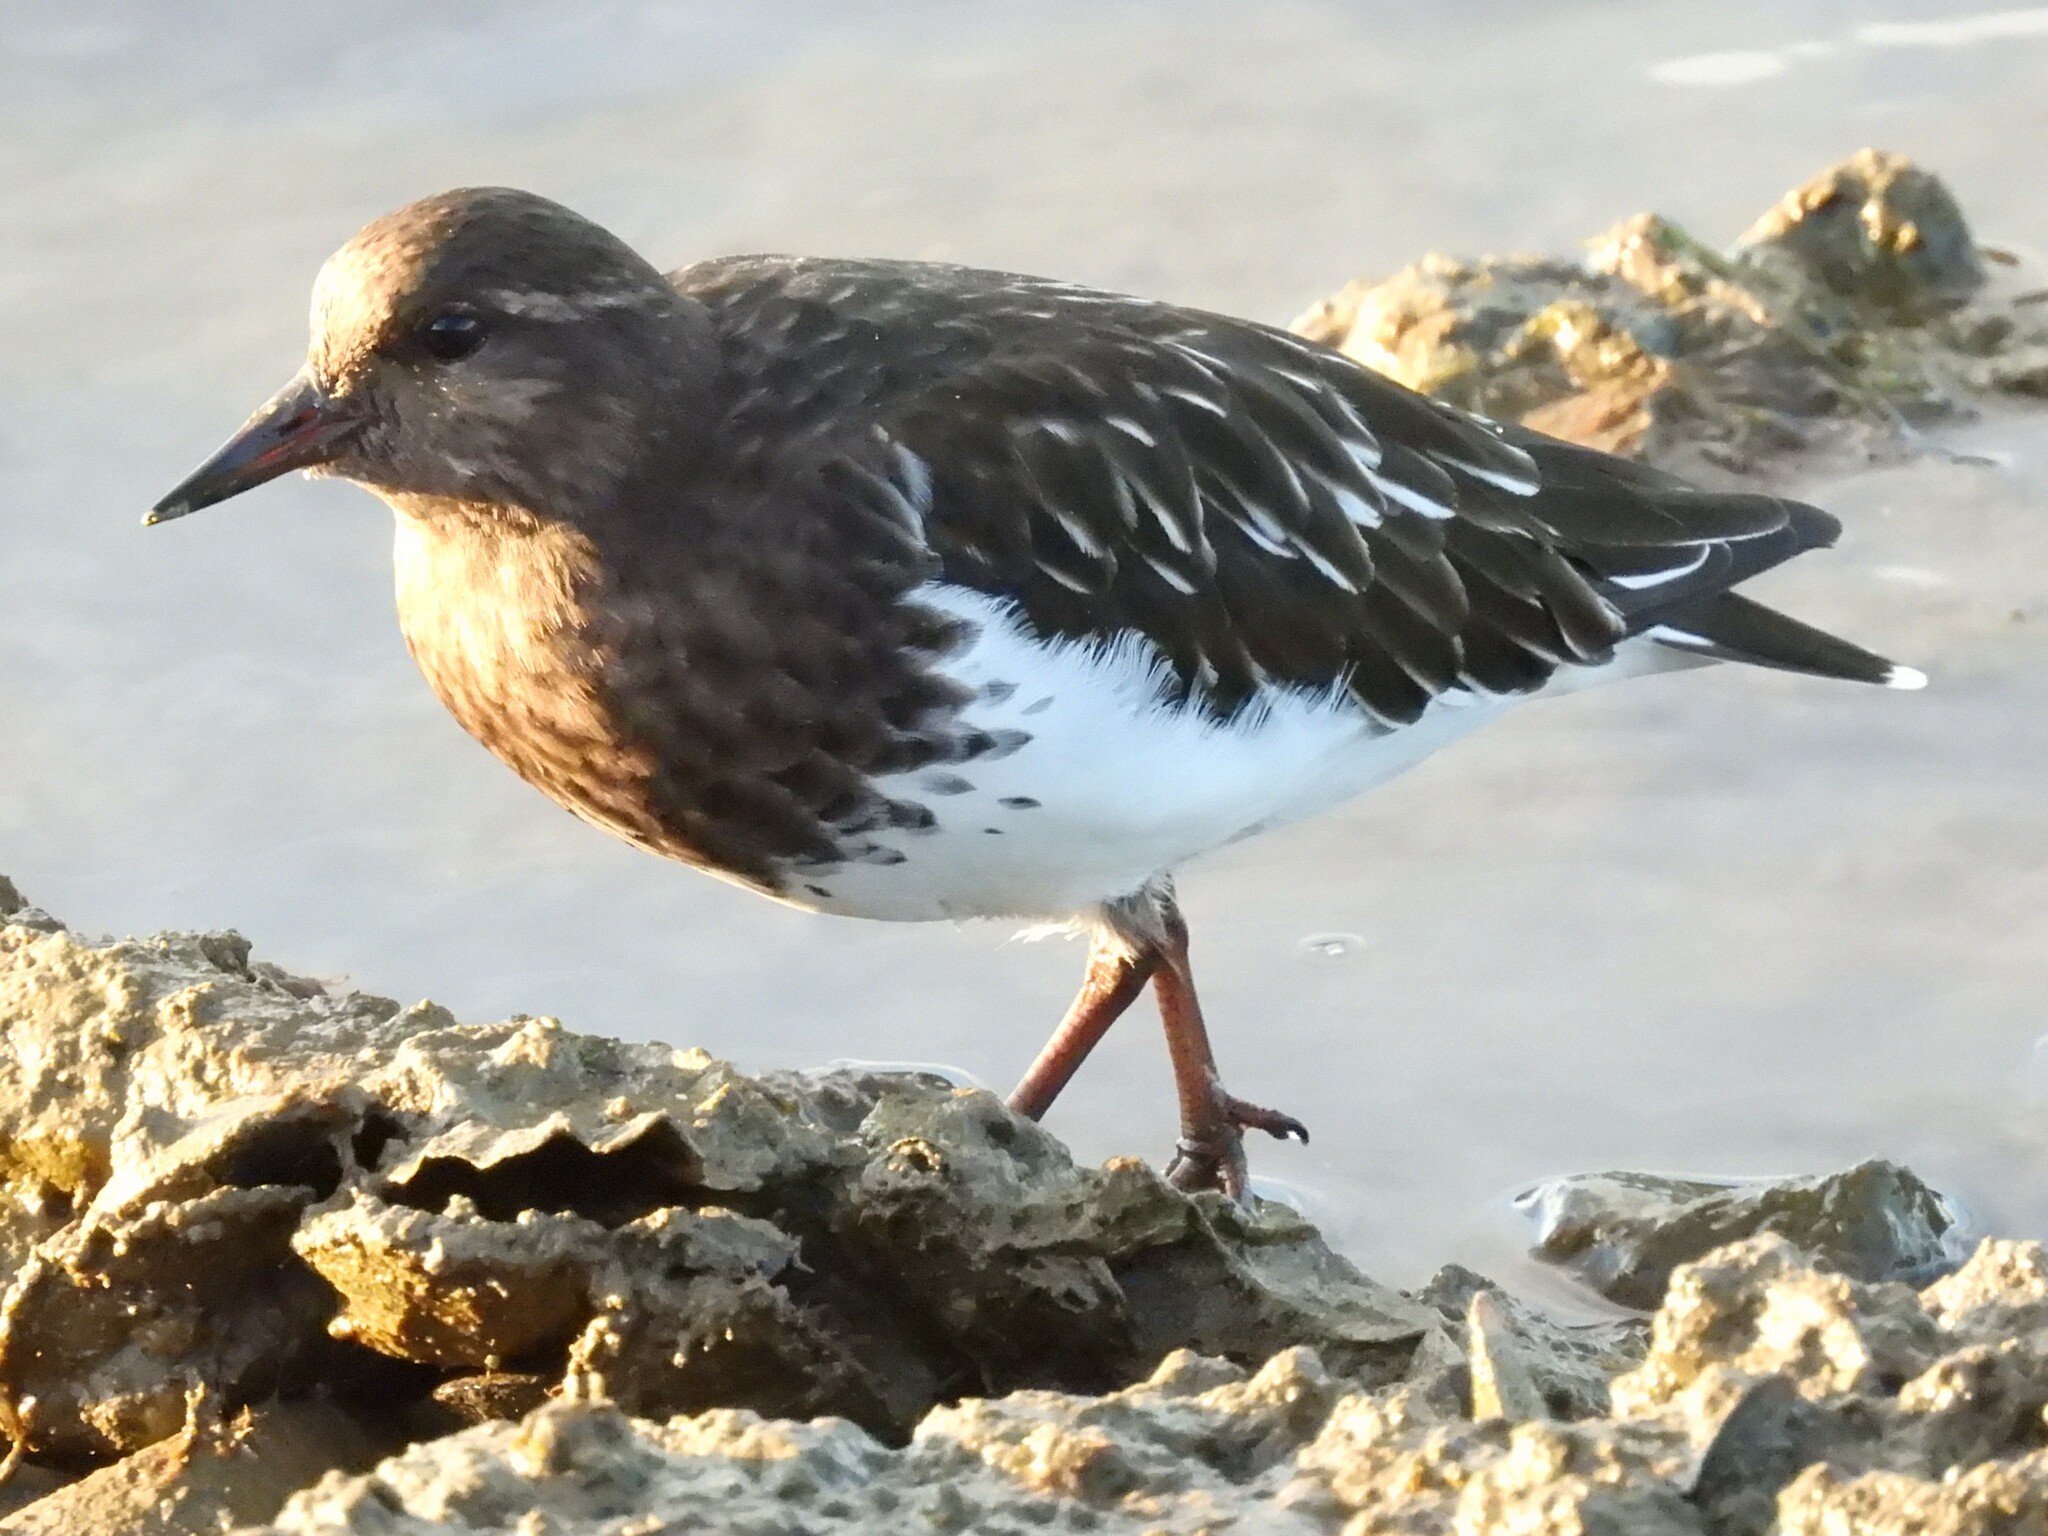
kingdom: Animalia
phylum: Chordata
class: Aves
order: Charadriiformes
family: Scolopacidae
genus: Arenaria
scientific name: Arenaria melanocephala
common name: Black turnstone
